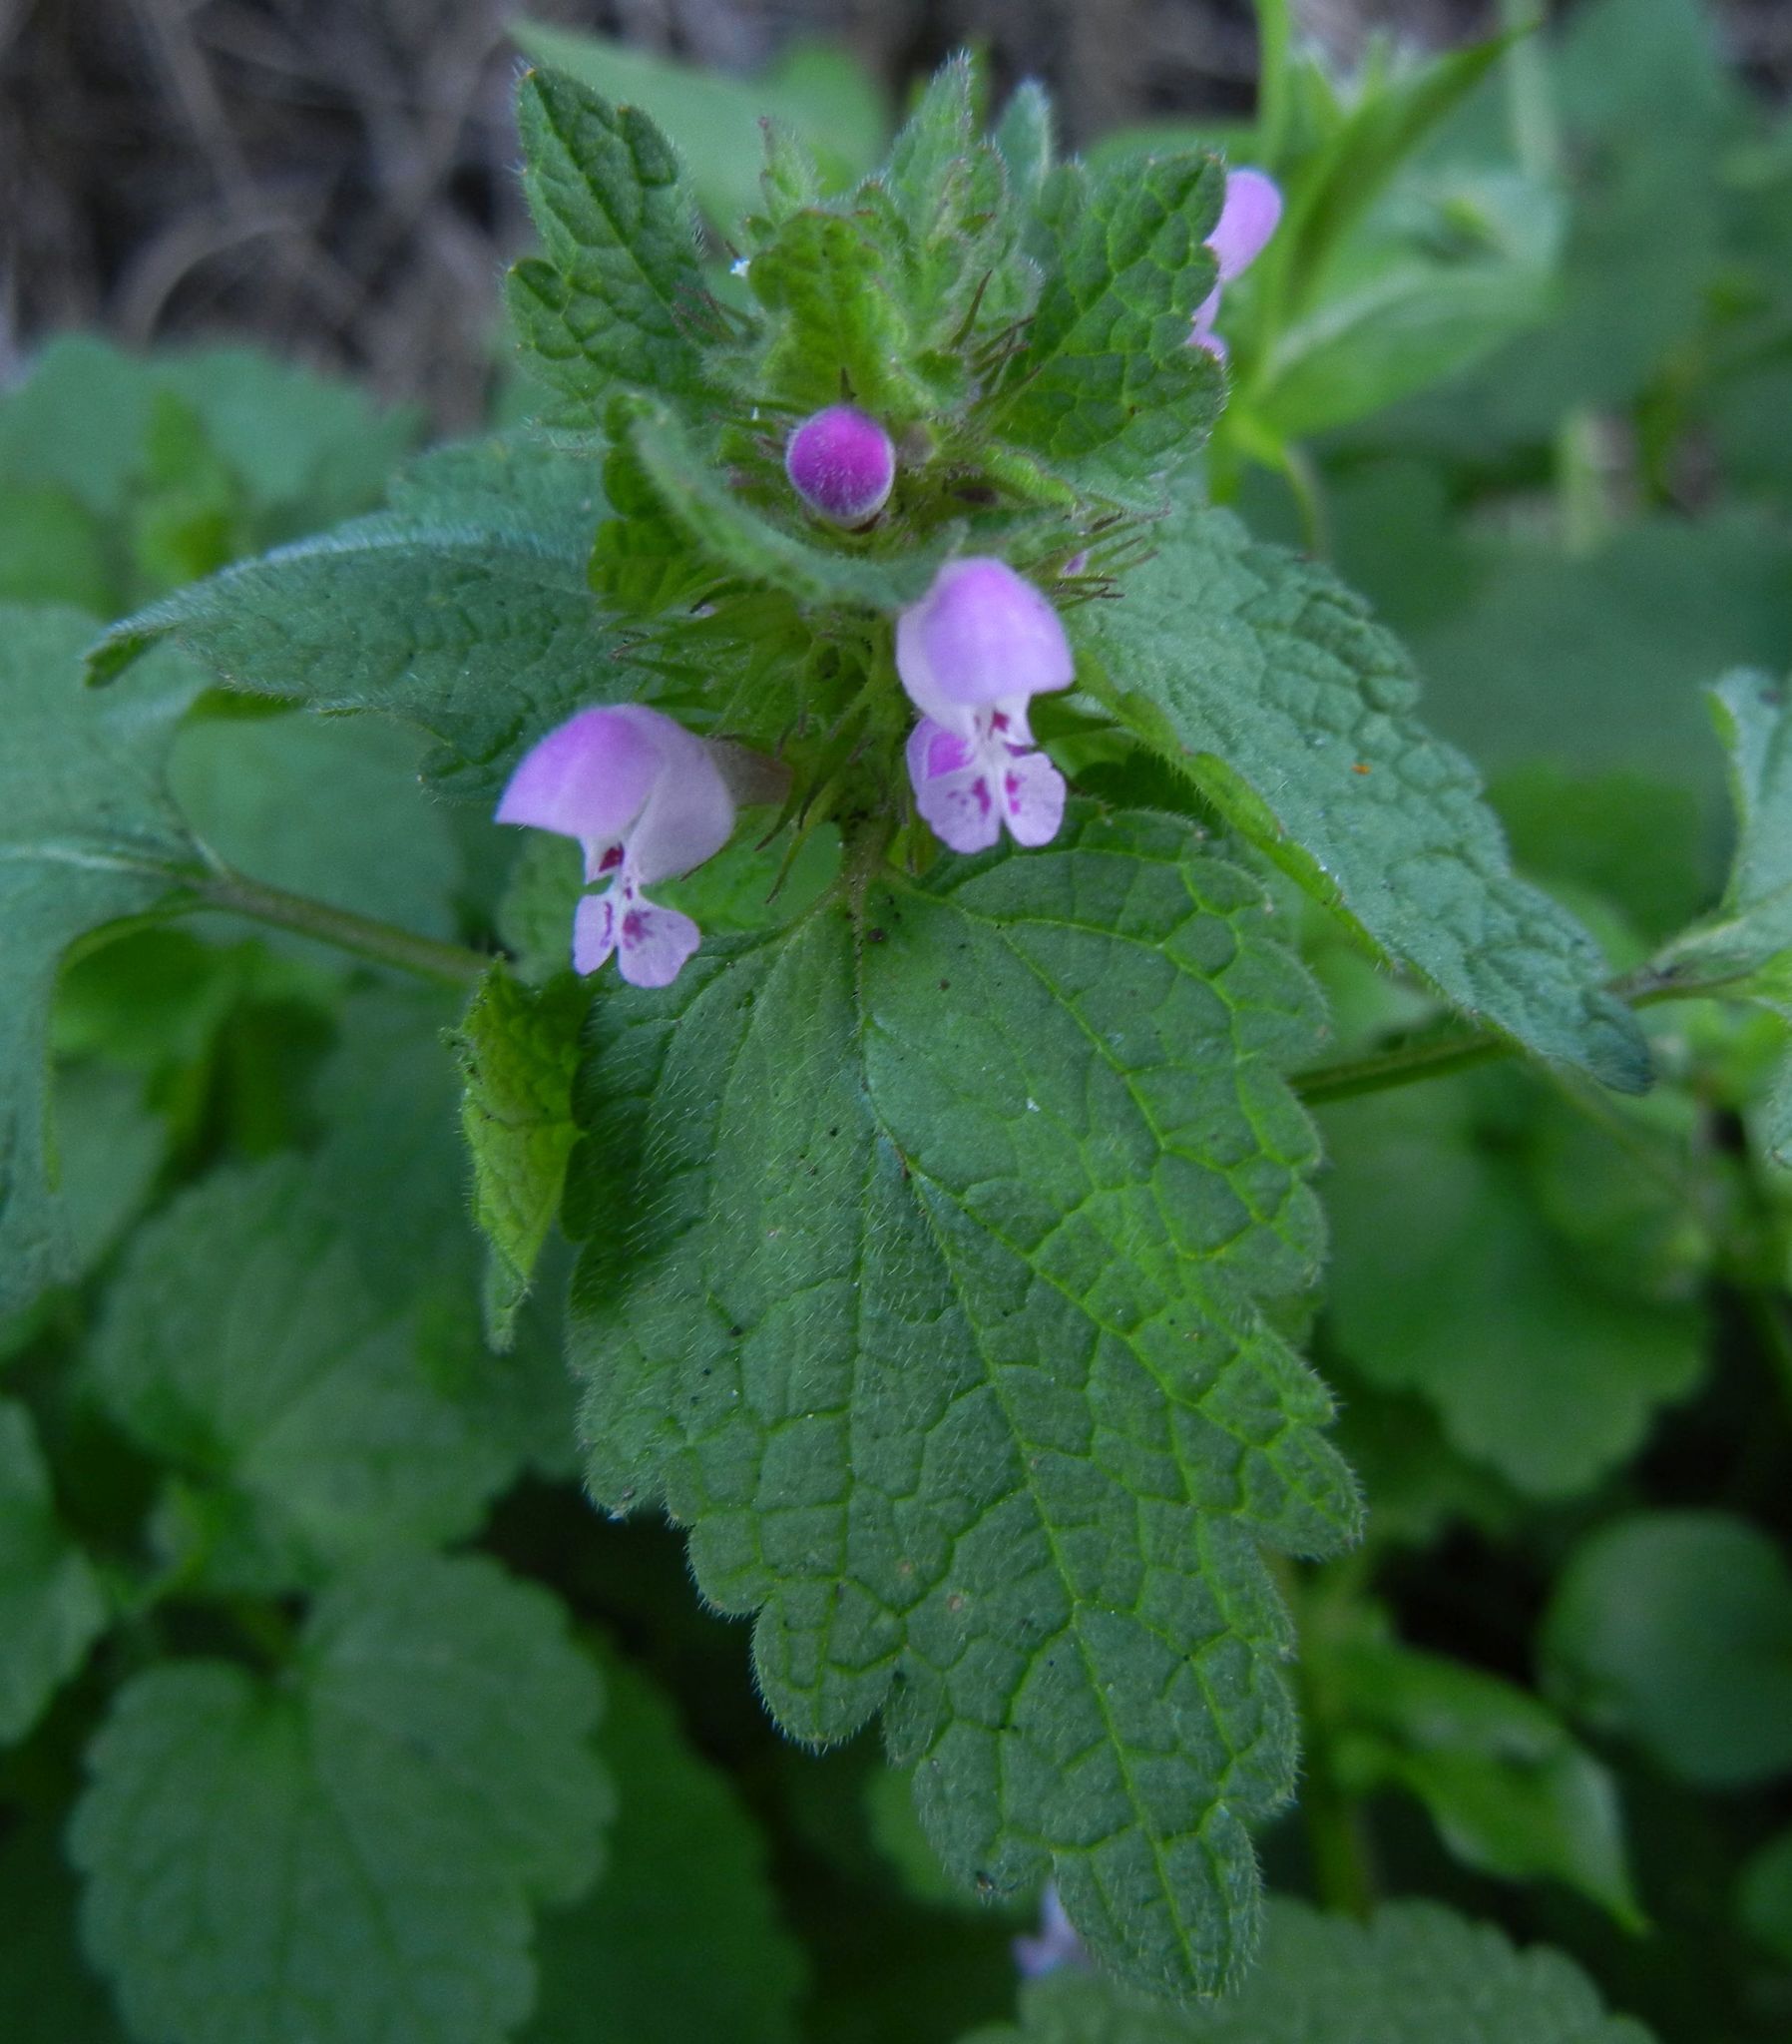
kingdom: Plantae
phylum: Tracheophyta
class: Magnoliopsida
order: Lamiales
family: Lamiaceae
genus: Lamium
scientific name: Lamium purpureum
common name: Red dead-nettle
